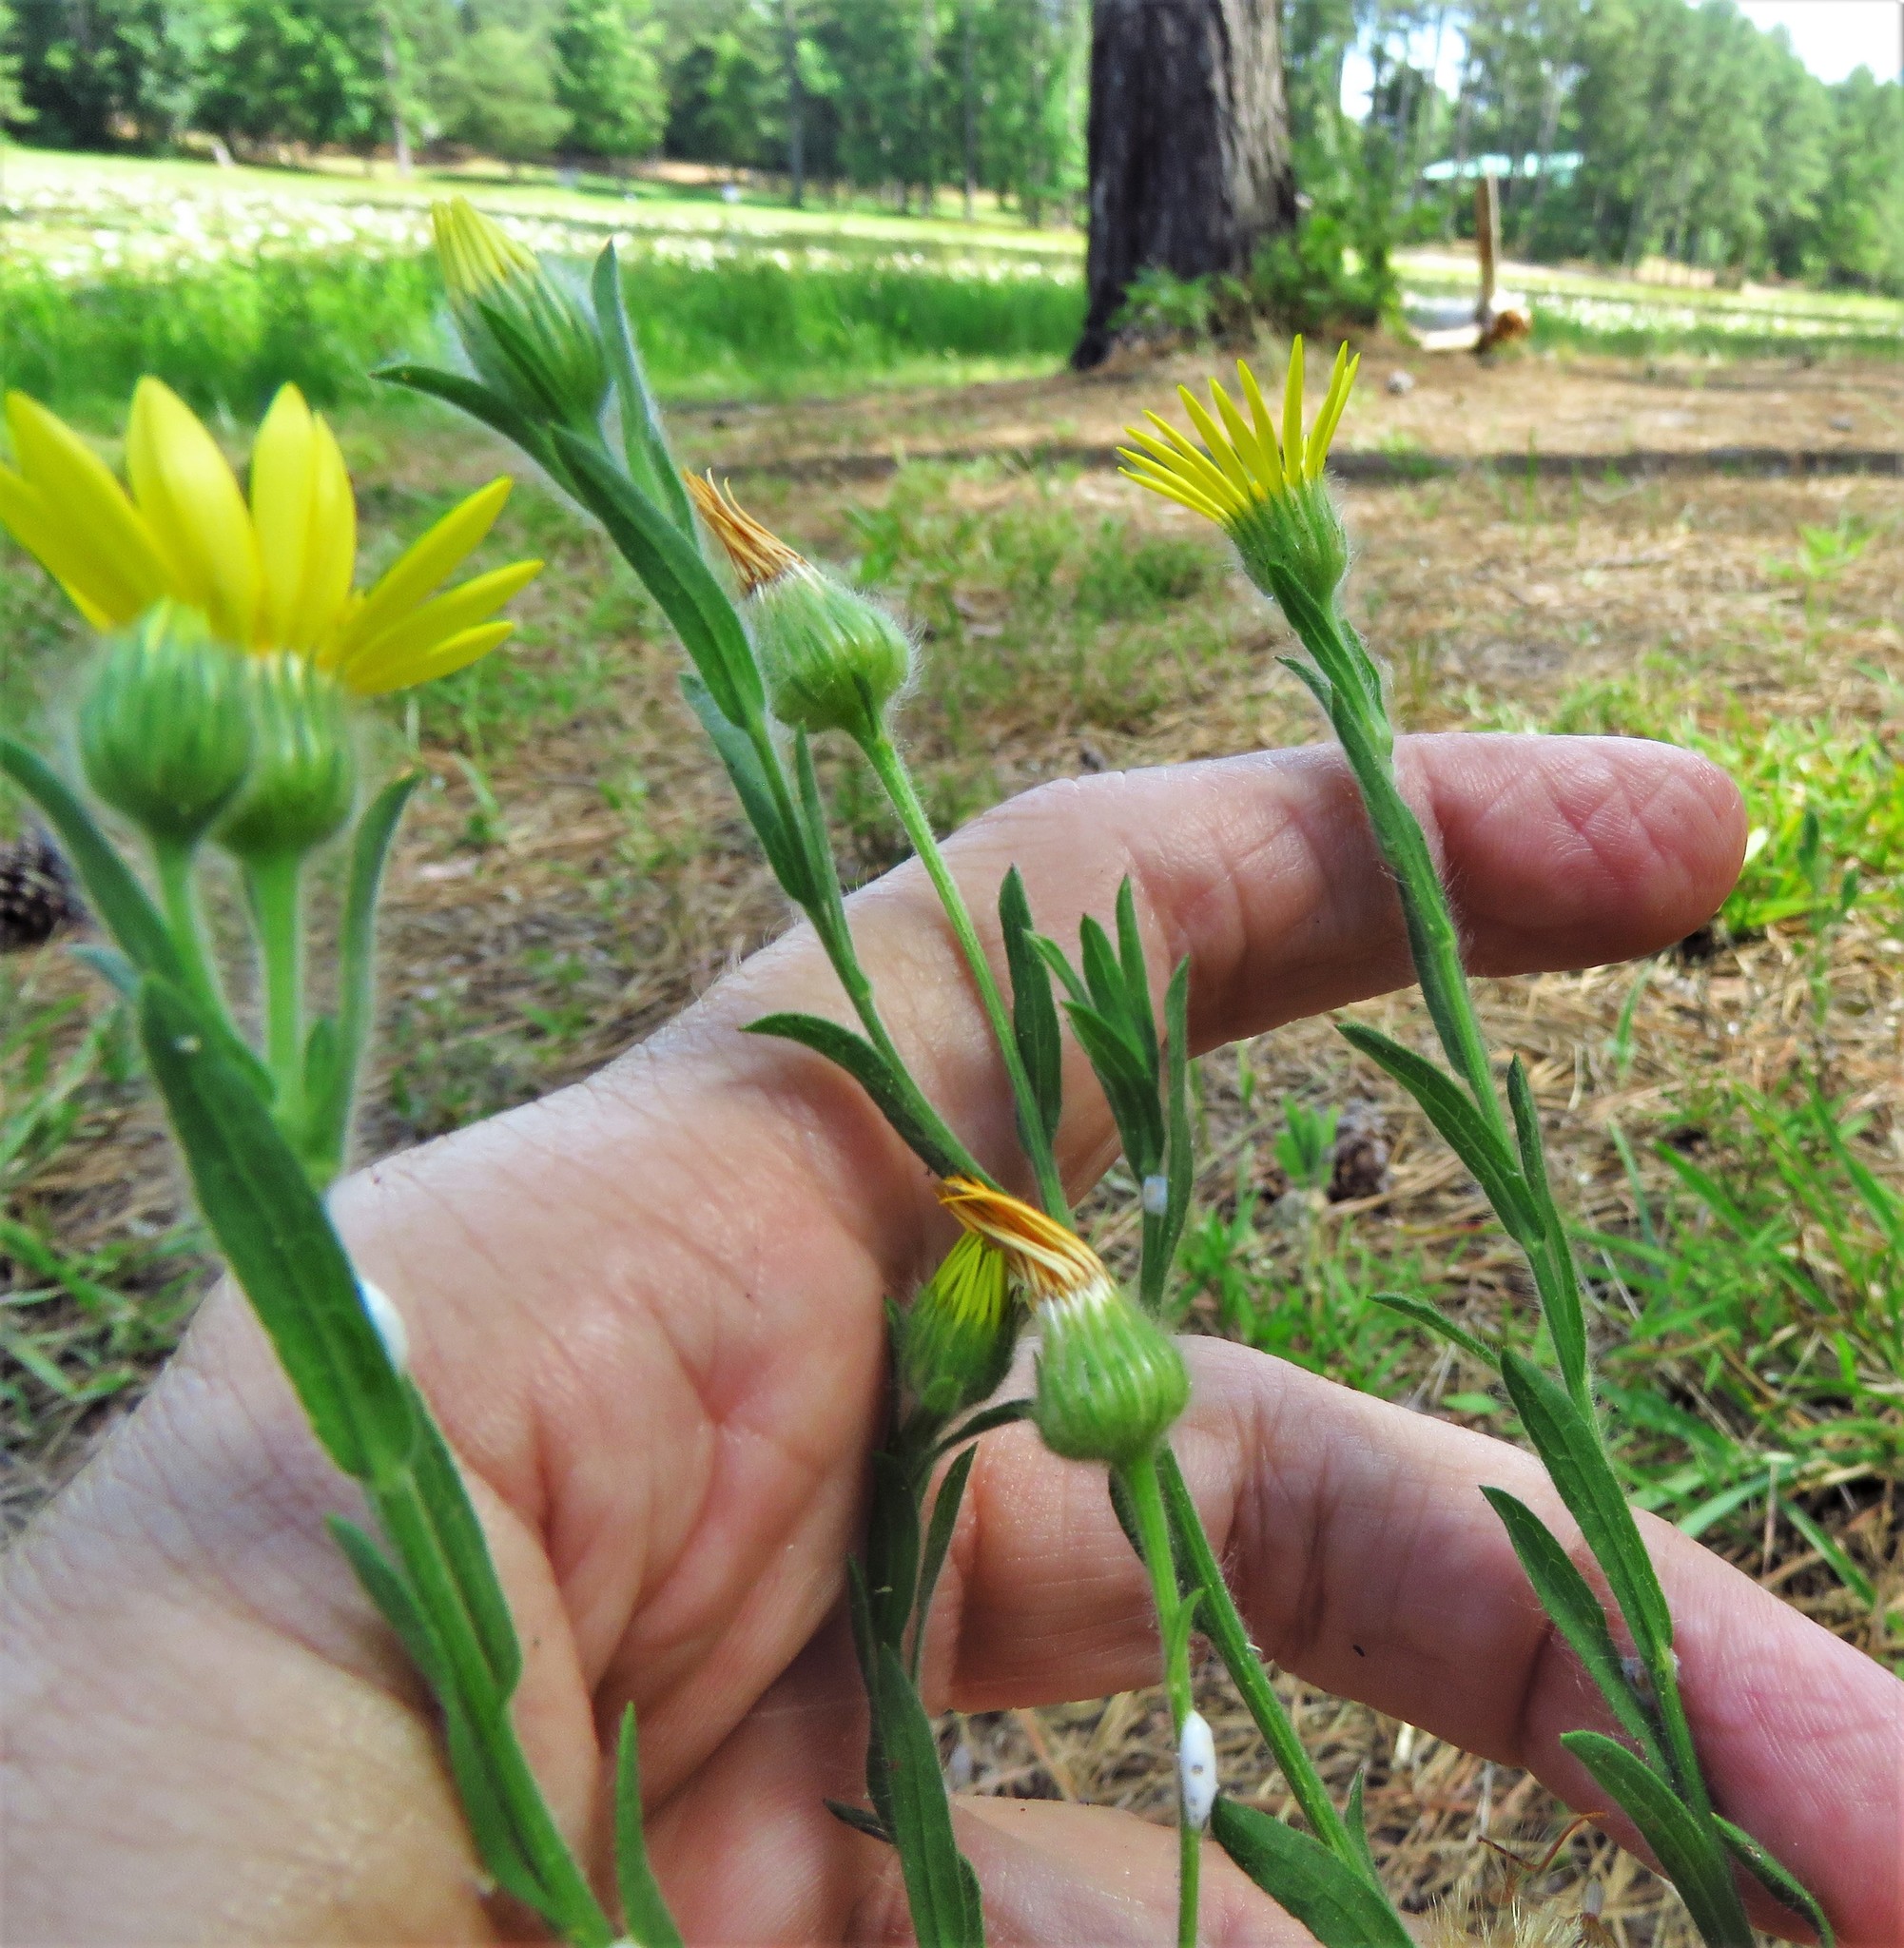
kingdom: Plantae
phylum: Tracheophyta
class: Magnoliopsida
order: Asterales
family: Asteraceae
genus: Bradburia
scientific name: Bradburia pilosa
